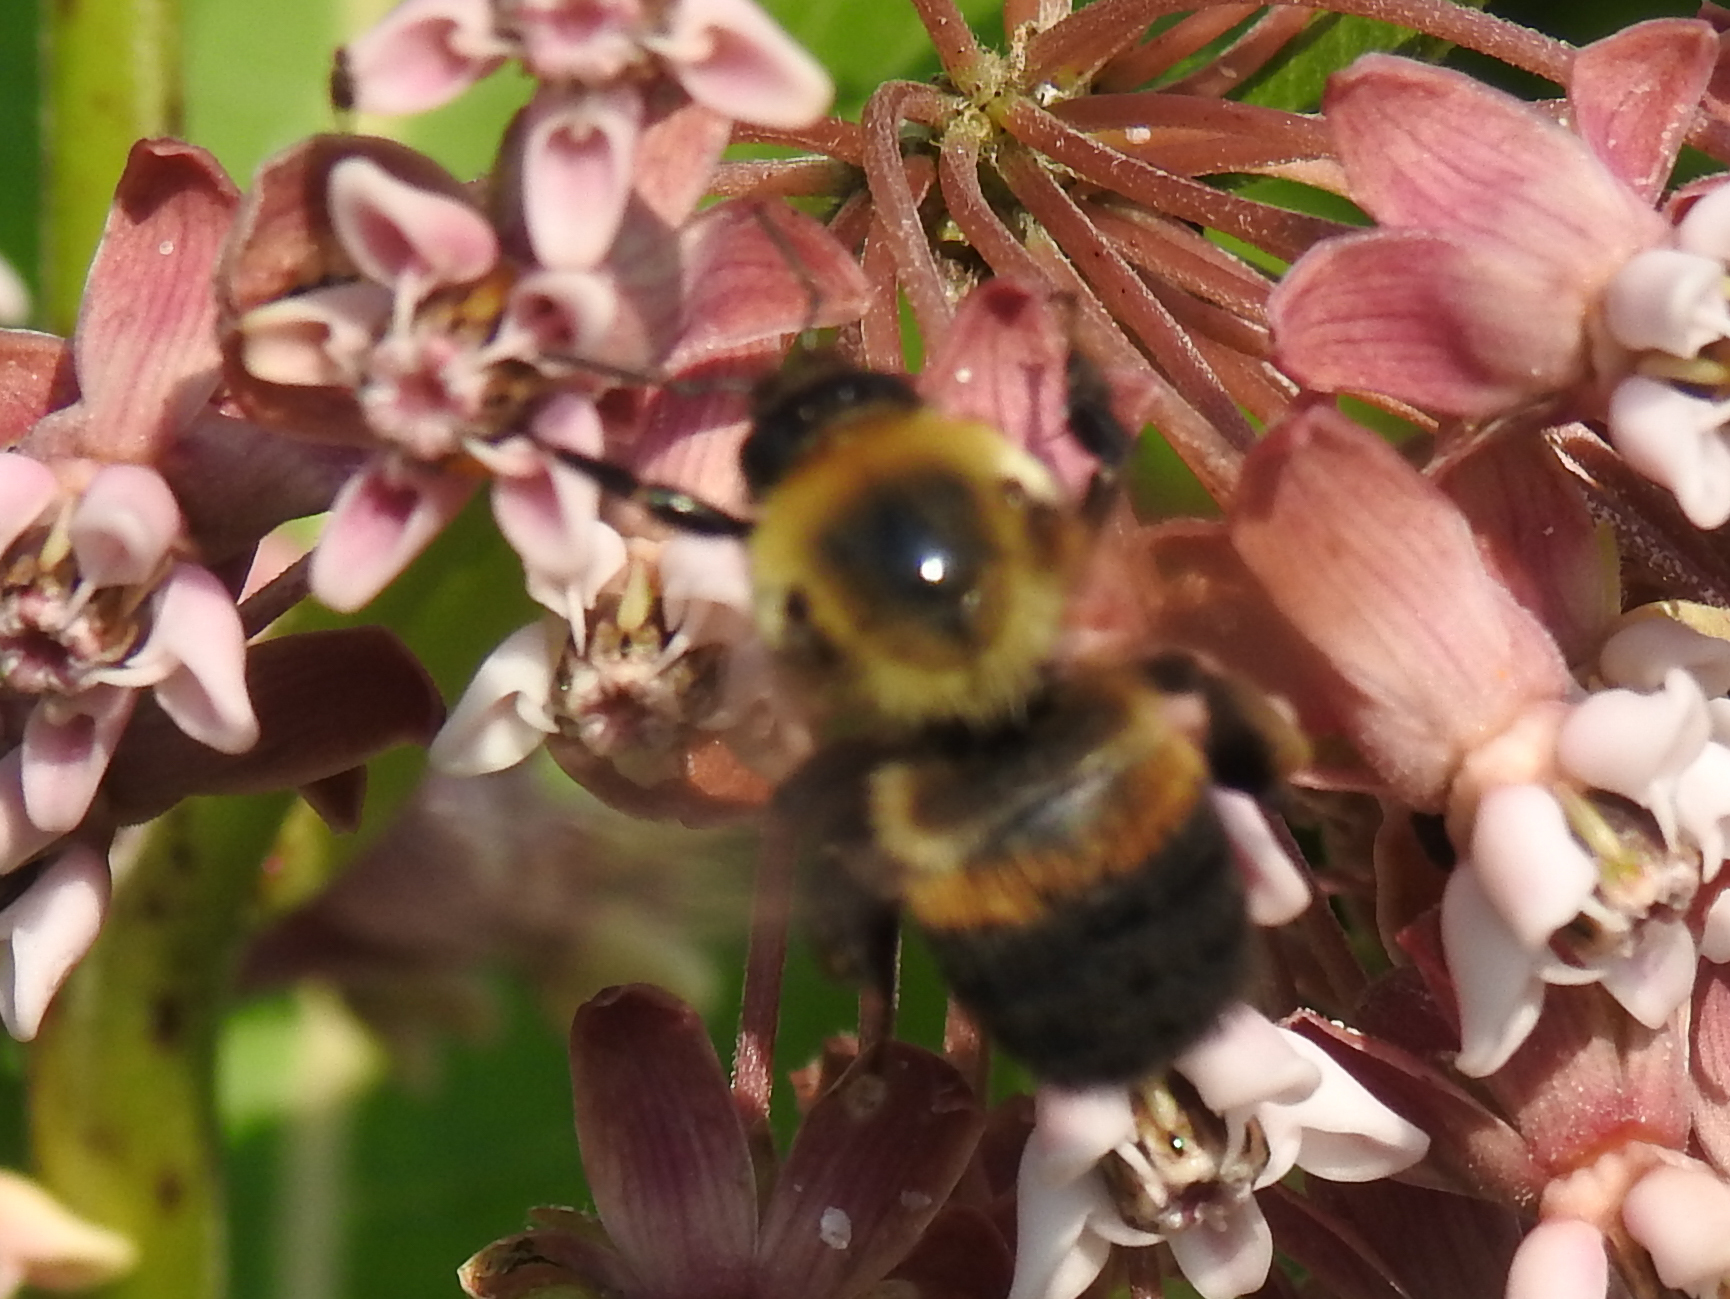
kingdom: Animalia
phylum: Arthropoda
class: Insecta
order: Hymenoptera
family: Apidae
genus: Bombus
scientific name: Bombus griseocollis
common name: Brown-belted bumble bee
